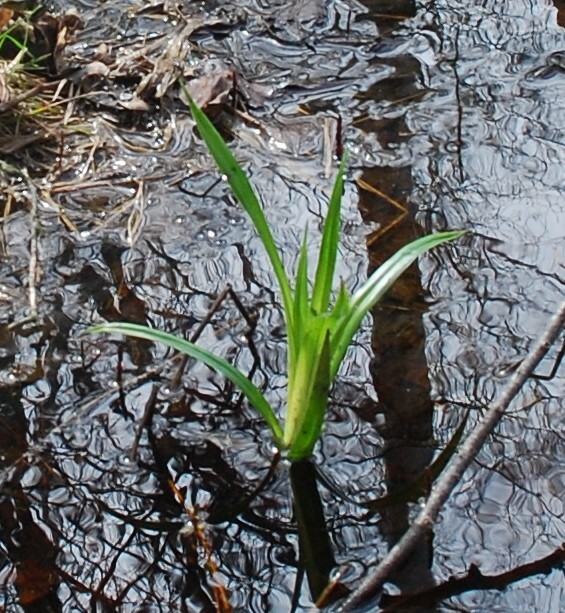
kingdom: Plantae
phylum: Tracheophyta
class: Liliopsida
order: Poales
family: Cyperaceae
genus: Scirpus
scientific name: Scirpus sylvaticus
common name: Wood club-rush
